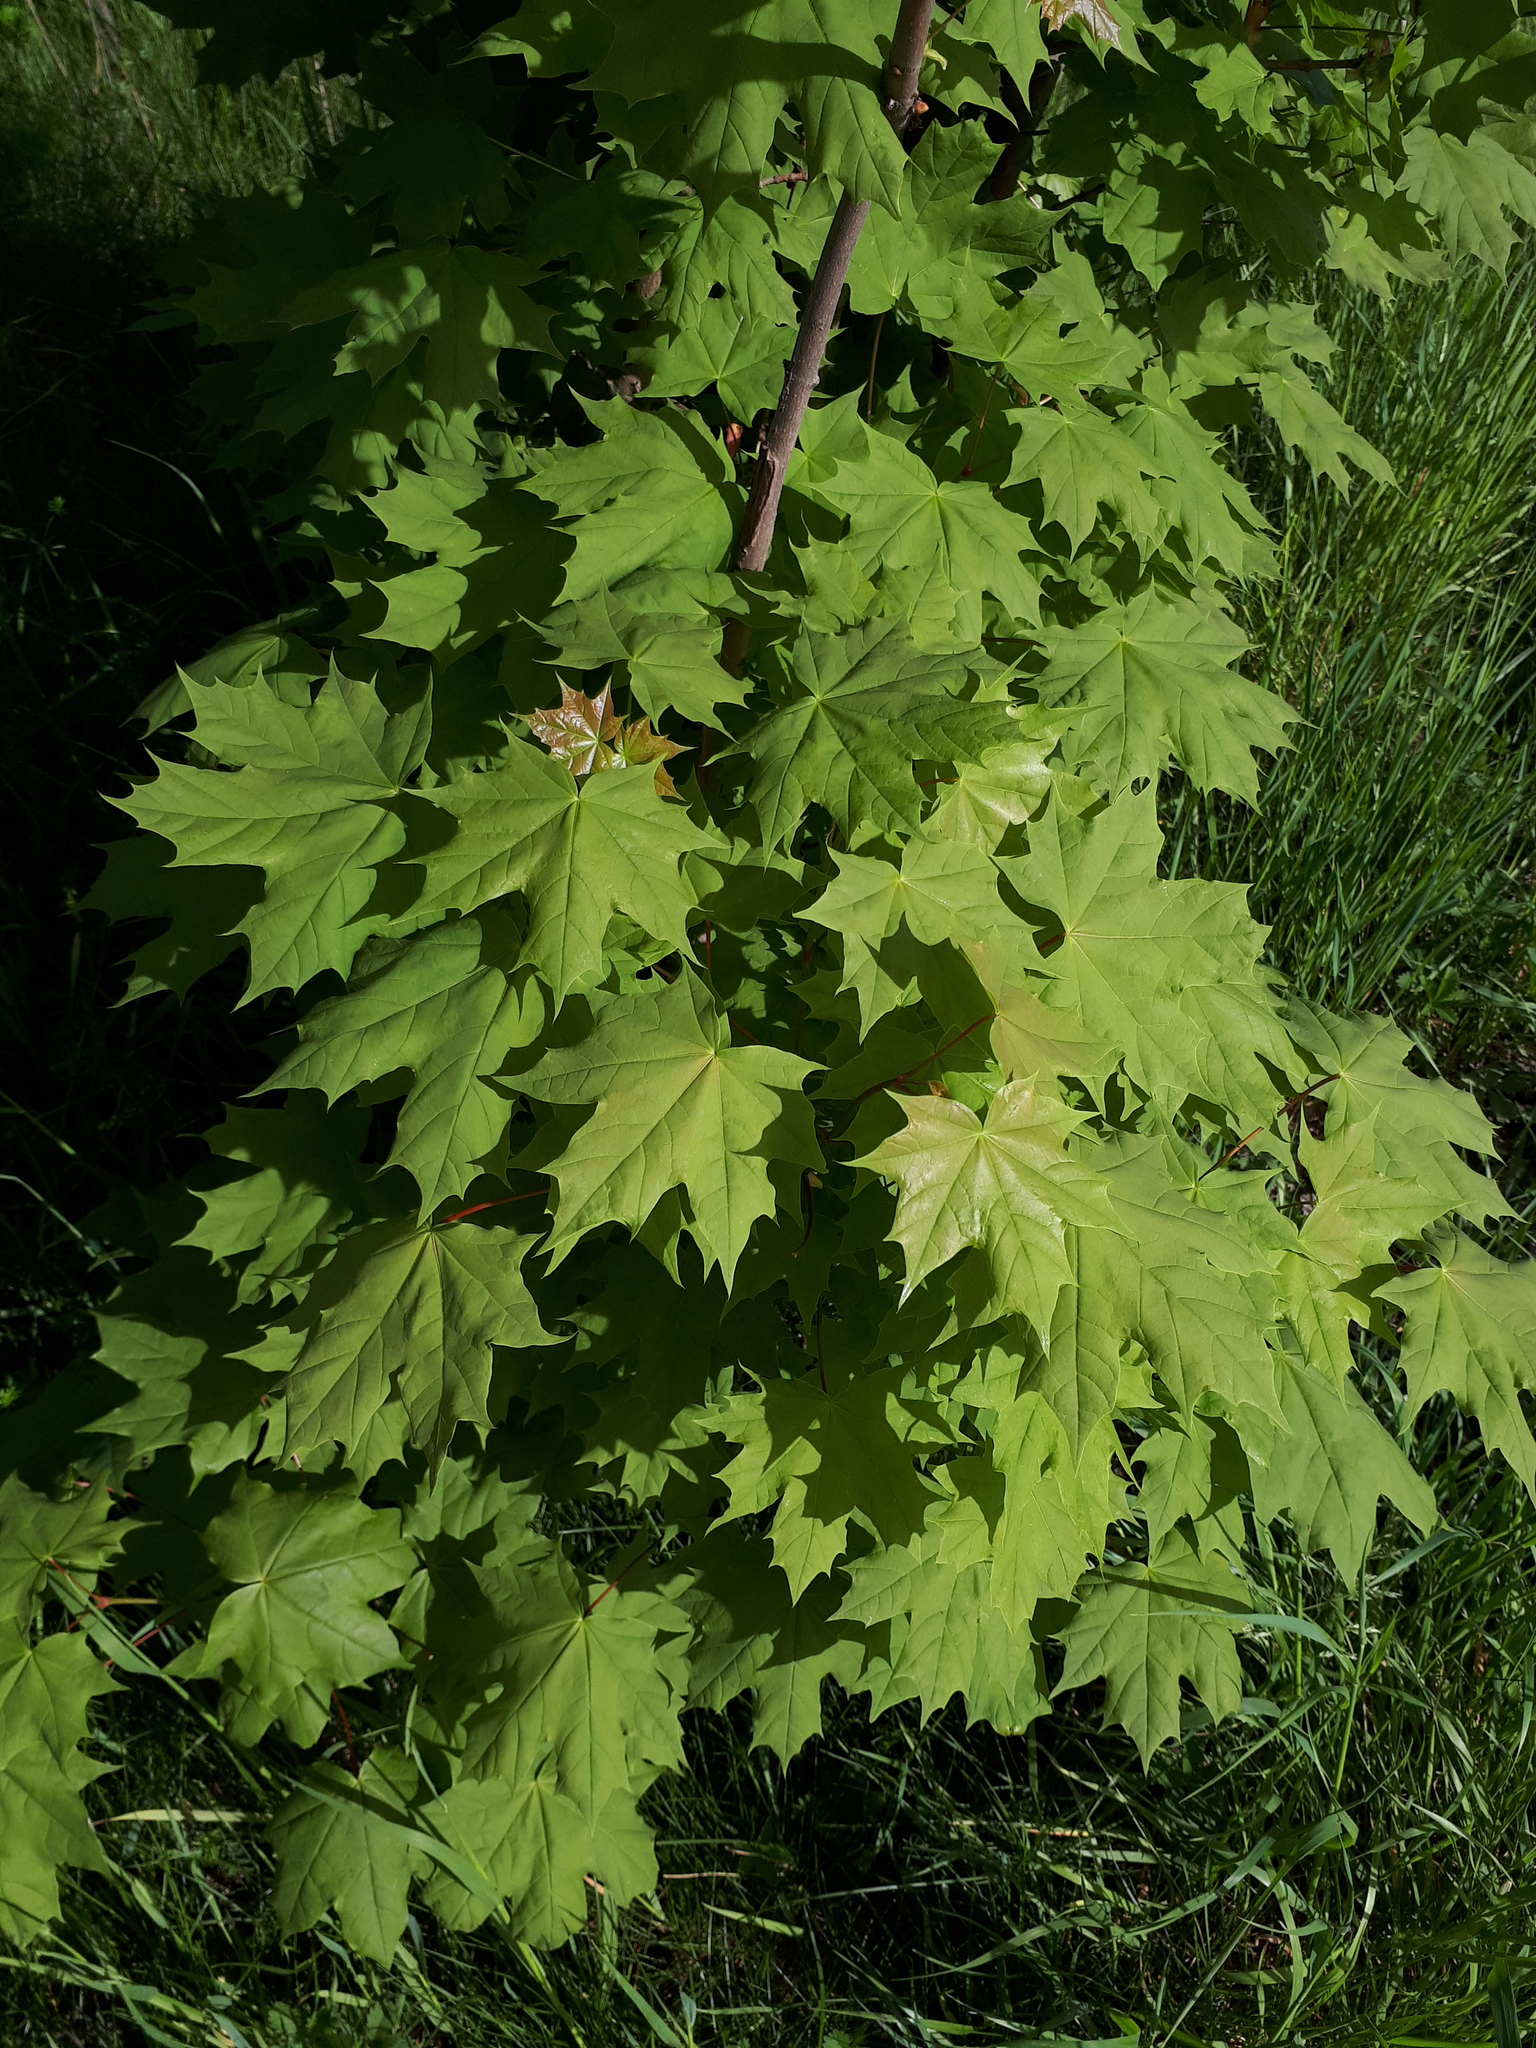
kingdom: Plantae
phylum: Tracheophyta
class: Magnoliopsida
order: Sapindales
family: Sapindaceae
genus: Acer
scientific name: Acer platanoides
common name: Norway maple
